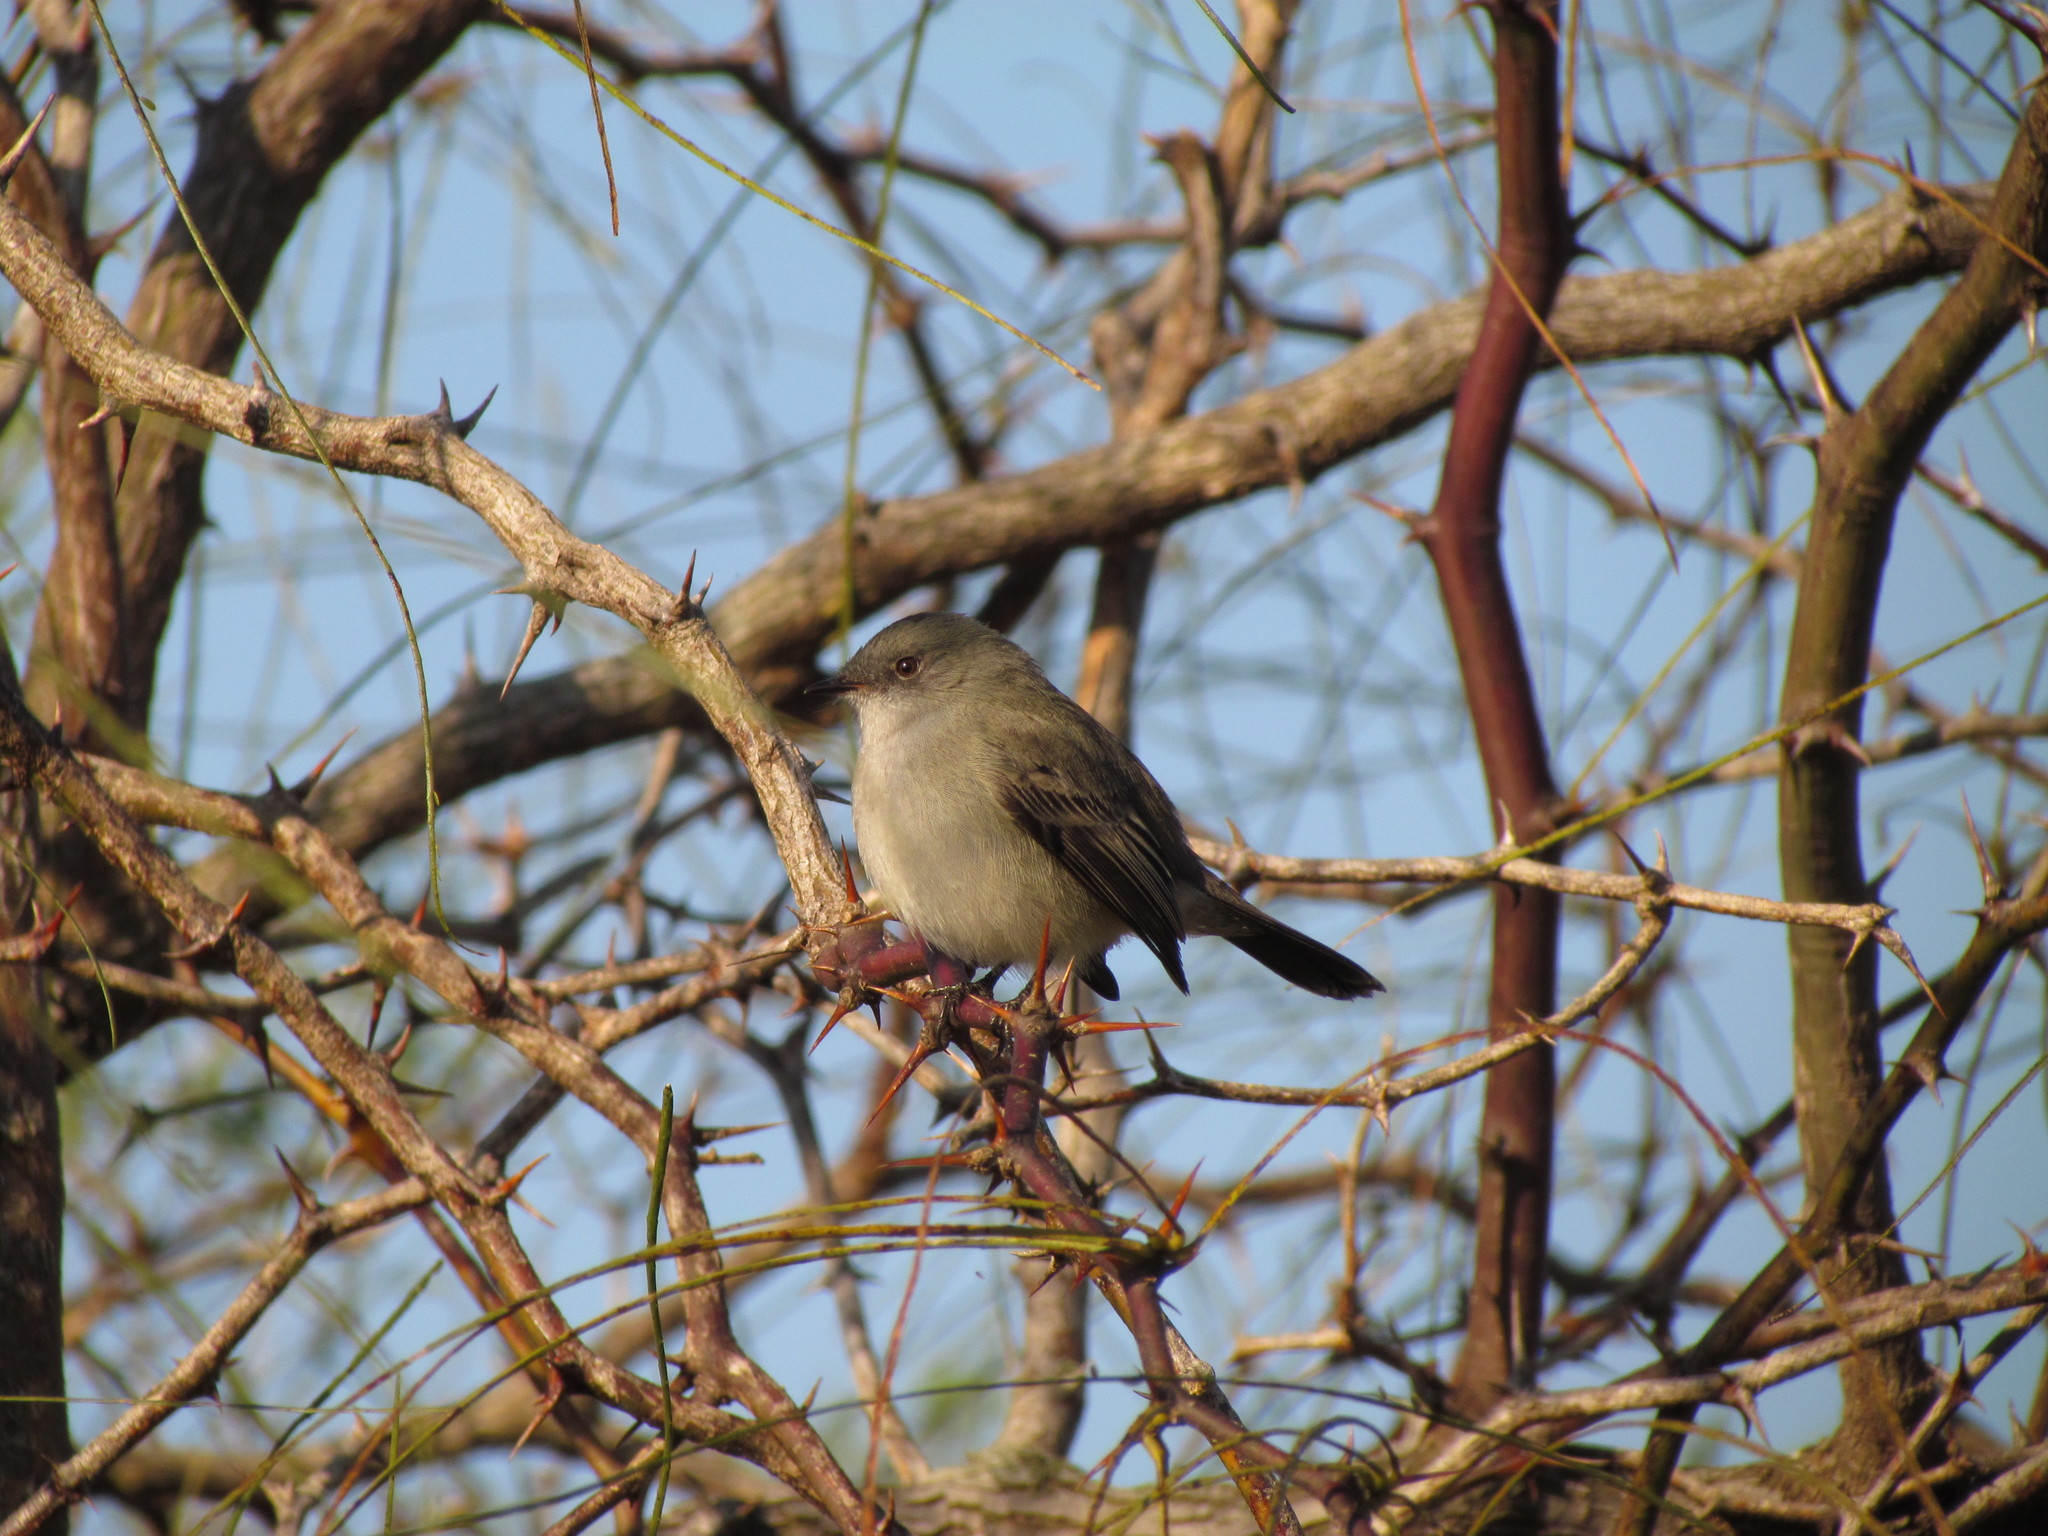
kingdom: Animalia
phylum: Chordata
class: Aves
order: Passeriformes
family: Tyrannidae
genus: Serpophaga
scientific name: Serpophaga nigricans
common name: Sooty tyrannulet
